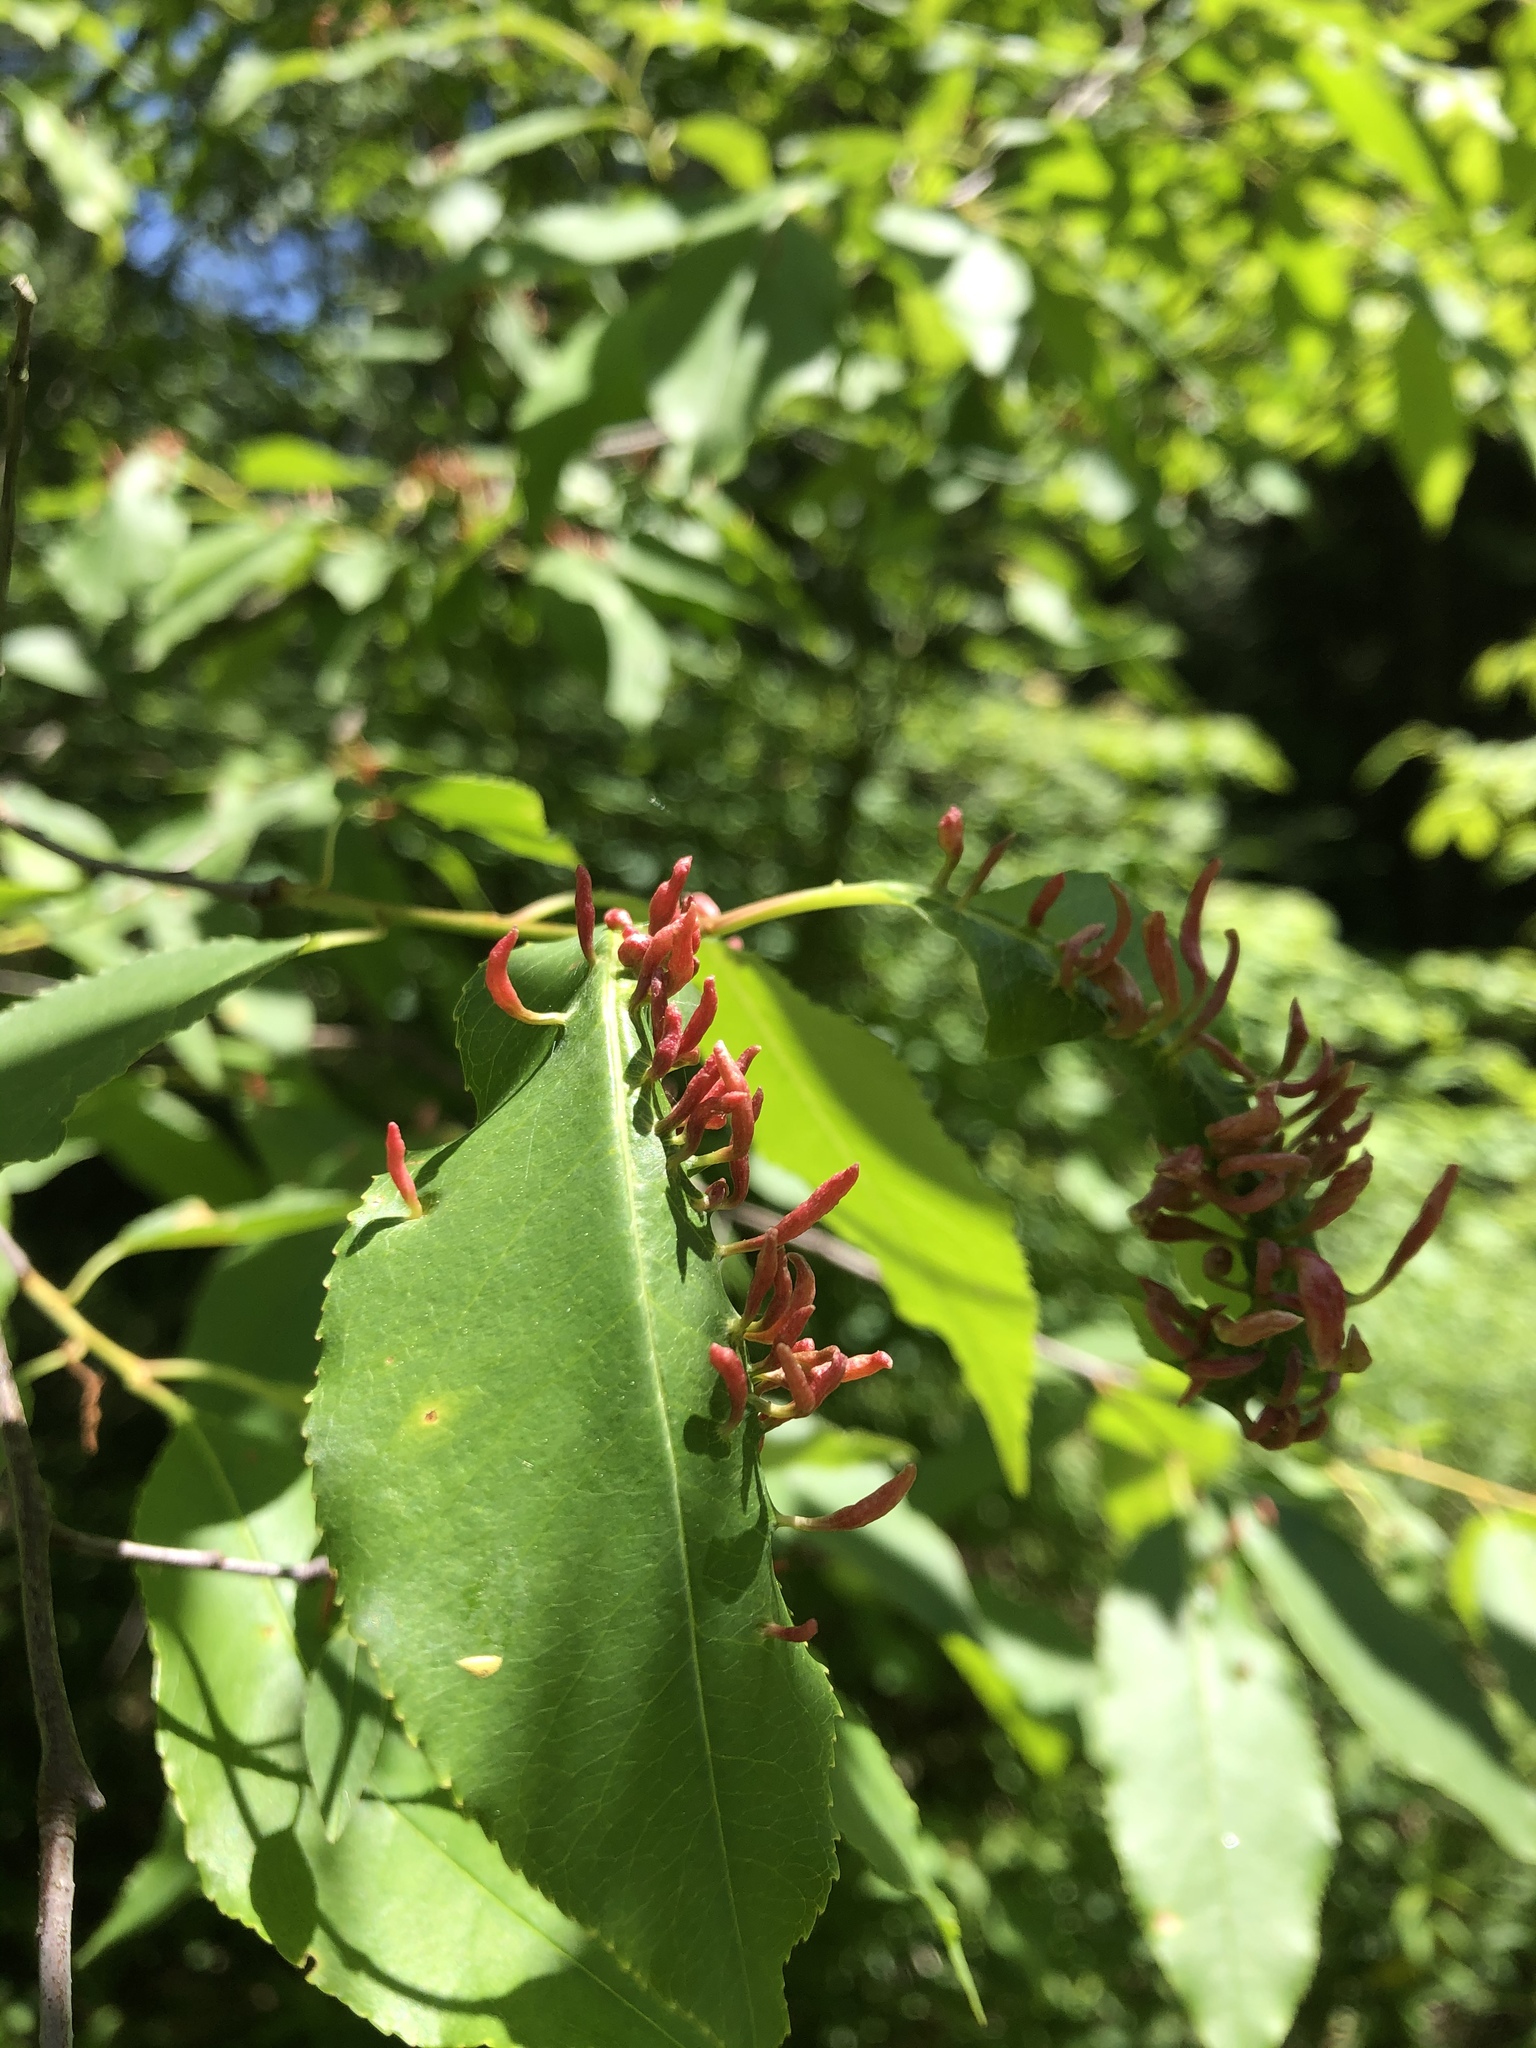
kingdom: Animalia
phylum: Arthropoda
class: Arachnida
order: Trombidiformes
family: Eriophyidae
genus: Eriophyes
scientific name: Eriophyes
